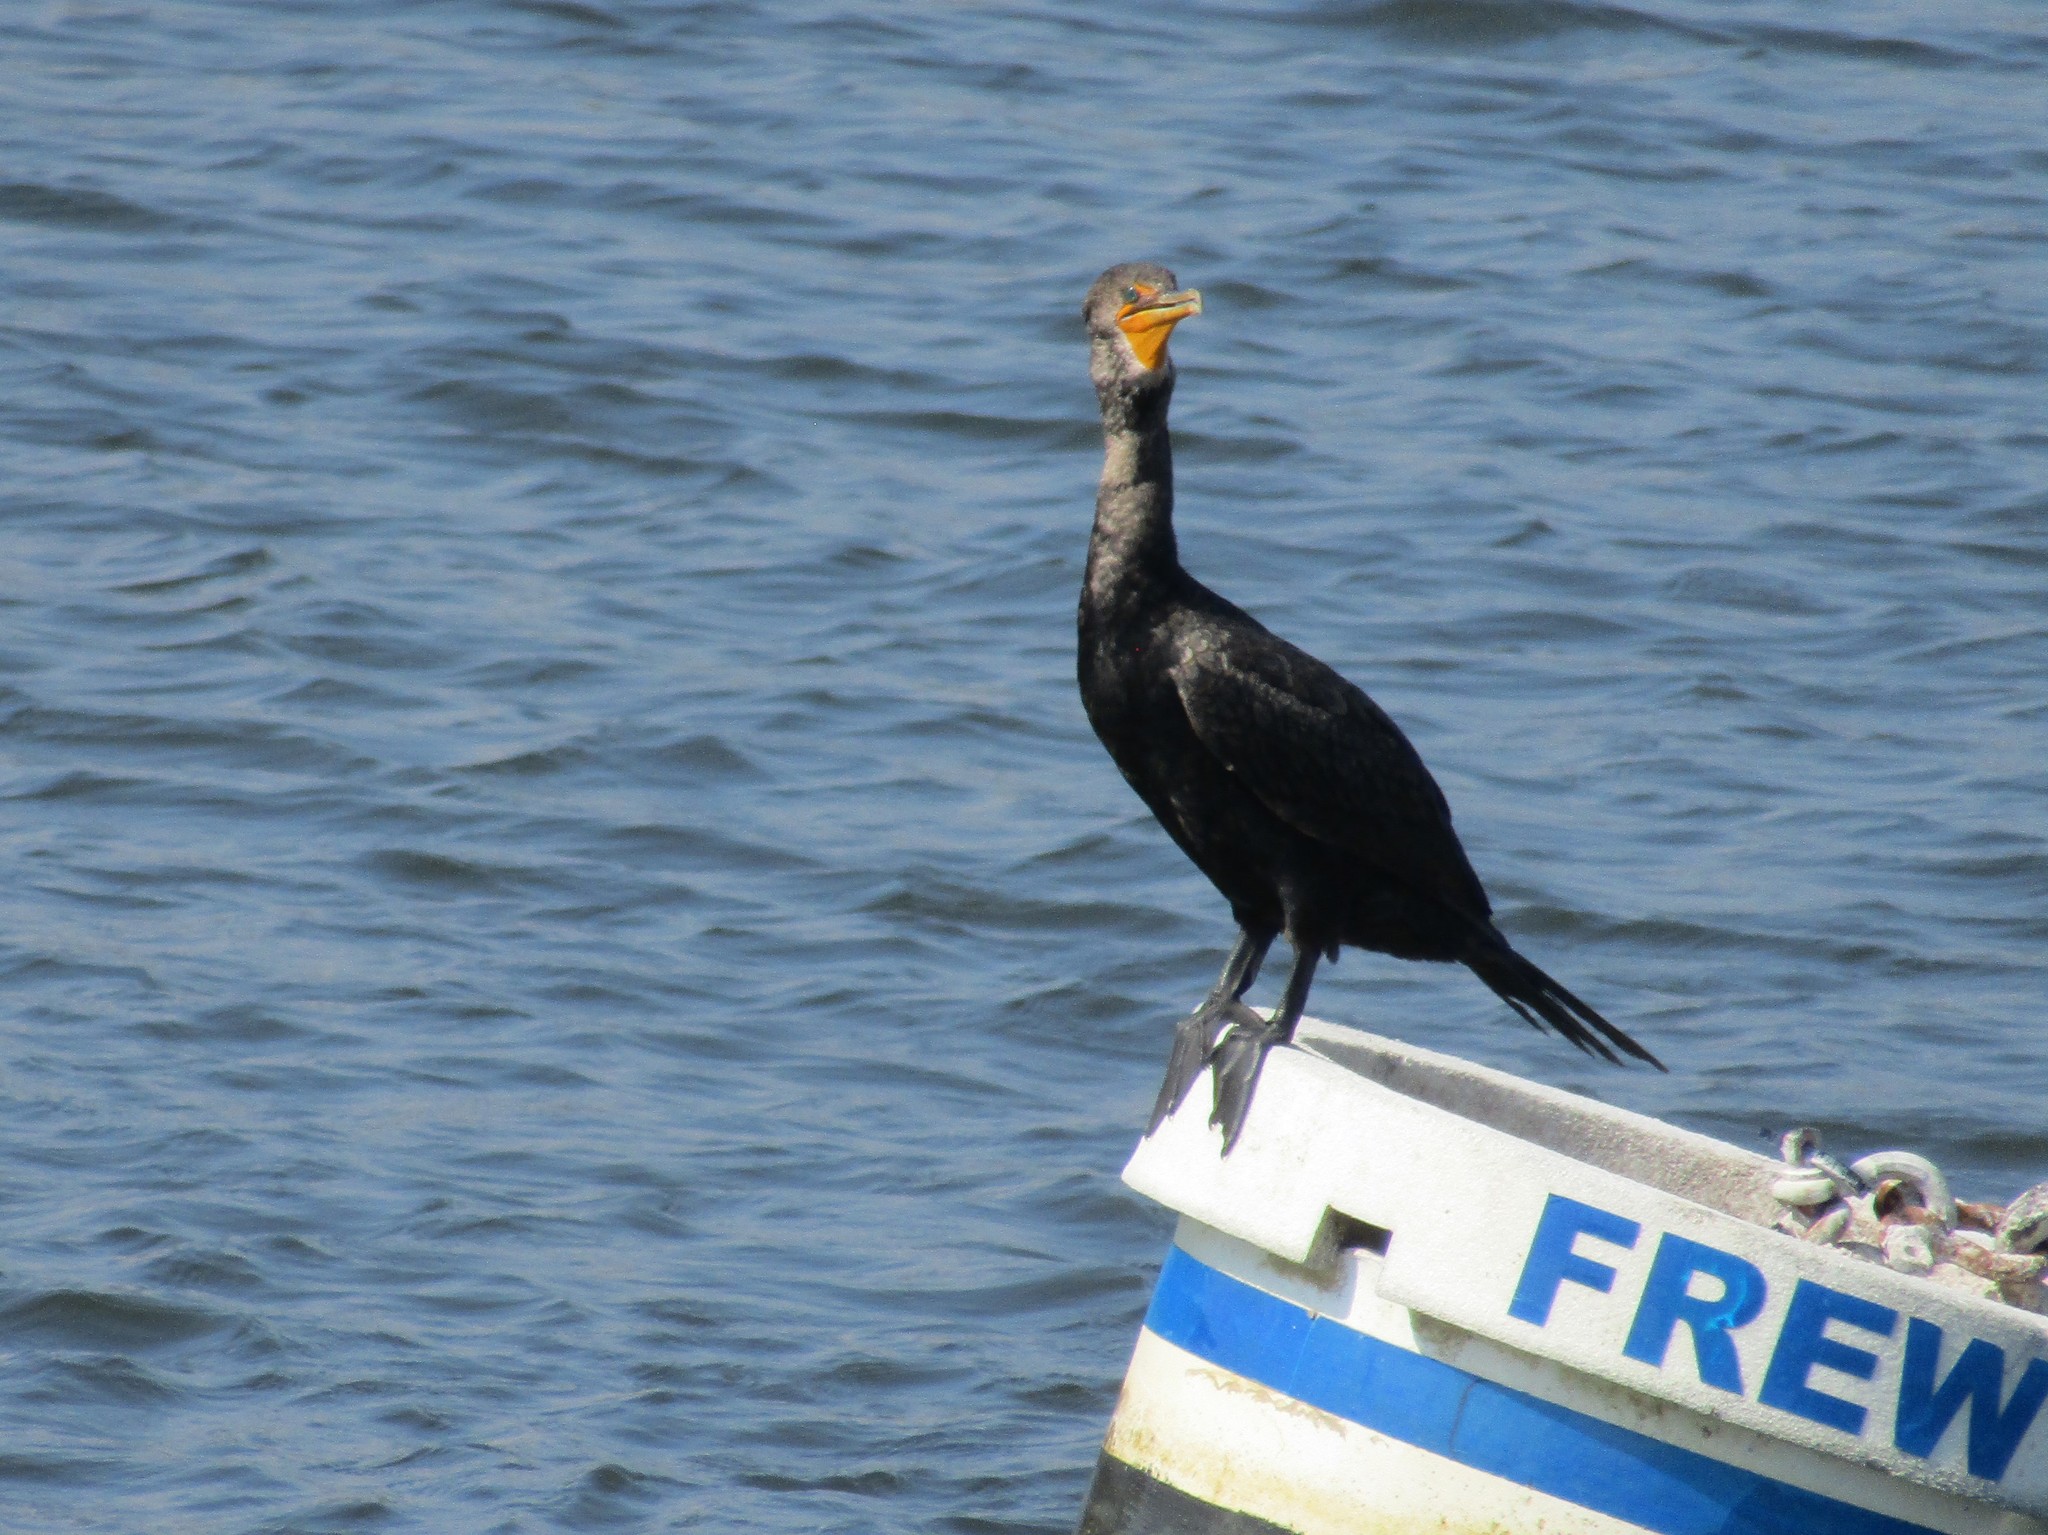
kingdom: Animalia
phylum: Chordata
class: Aves
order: Suliformes
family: Phalacrocoracidae
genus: Phalacrocorax
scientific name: Phalacrocorax auritus
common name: Double-crested cormorant
